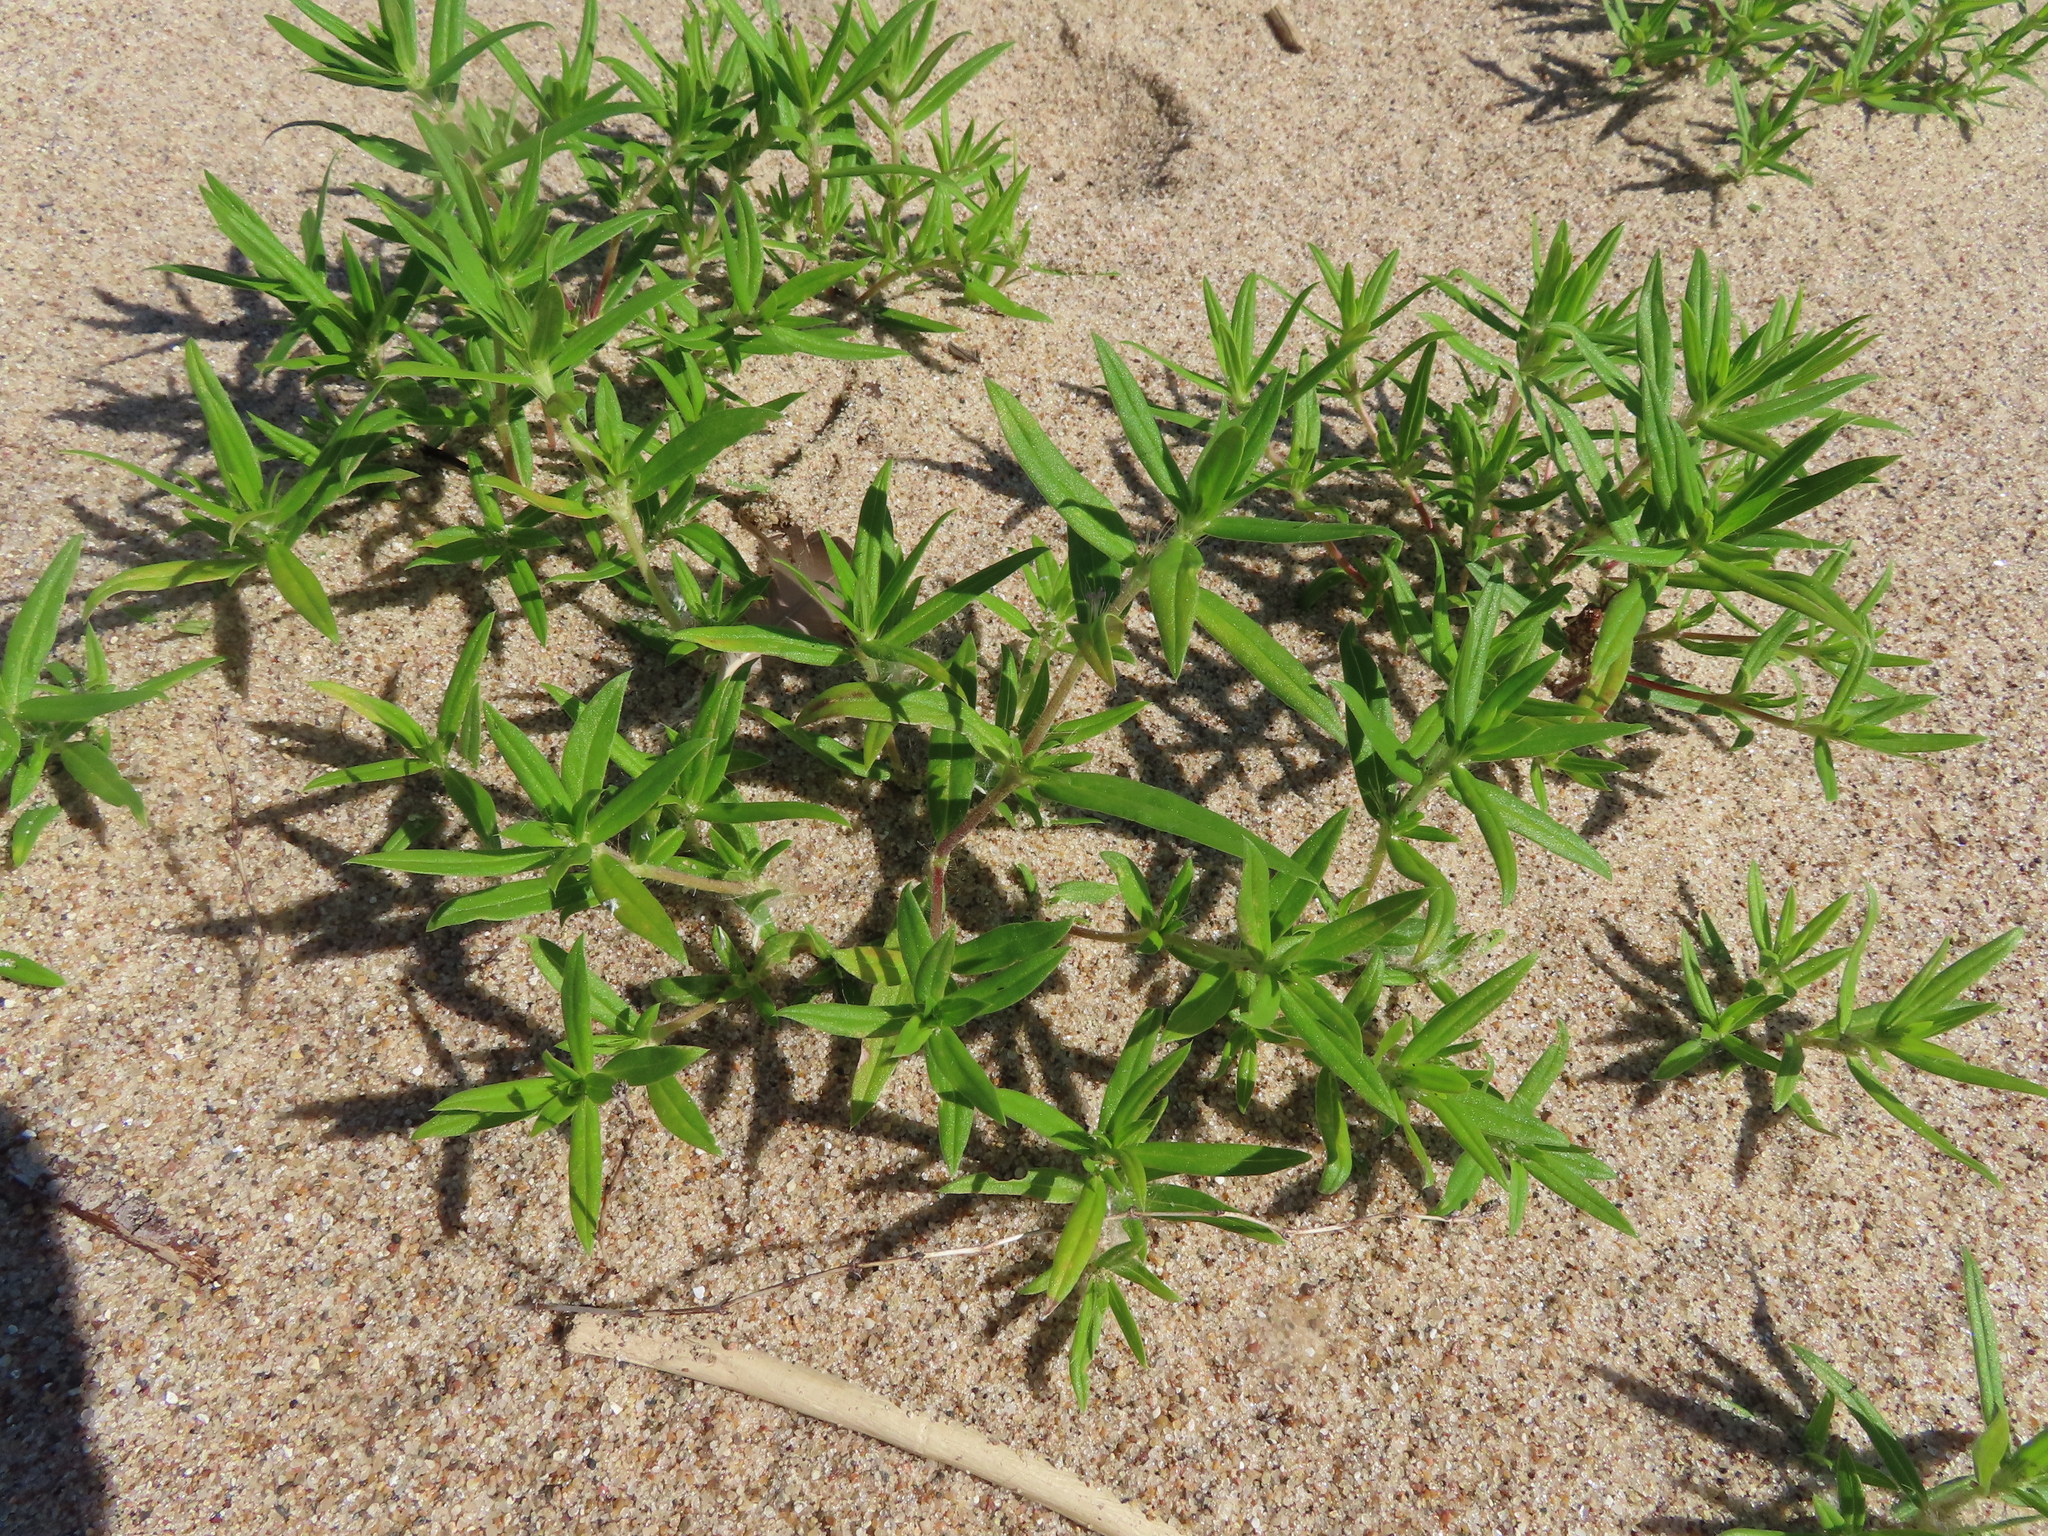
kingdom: Plantae
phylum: Tracheophyta
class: Magnoliopsida
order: Gentianales
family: Rubiaceae
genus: Hexasepalum
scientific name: Hexasepalum teres
